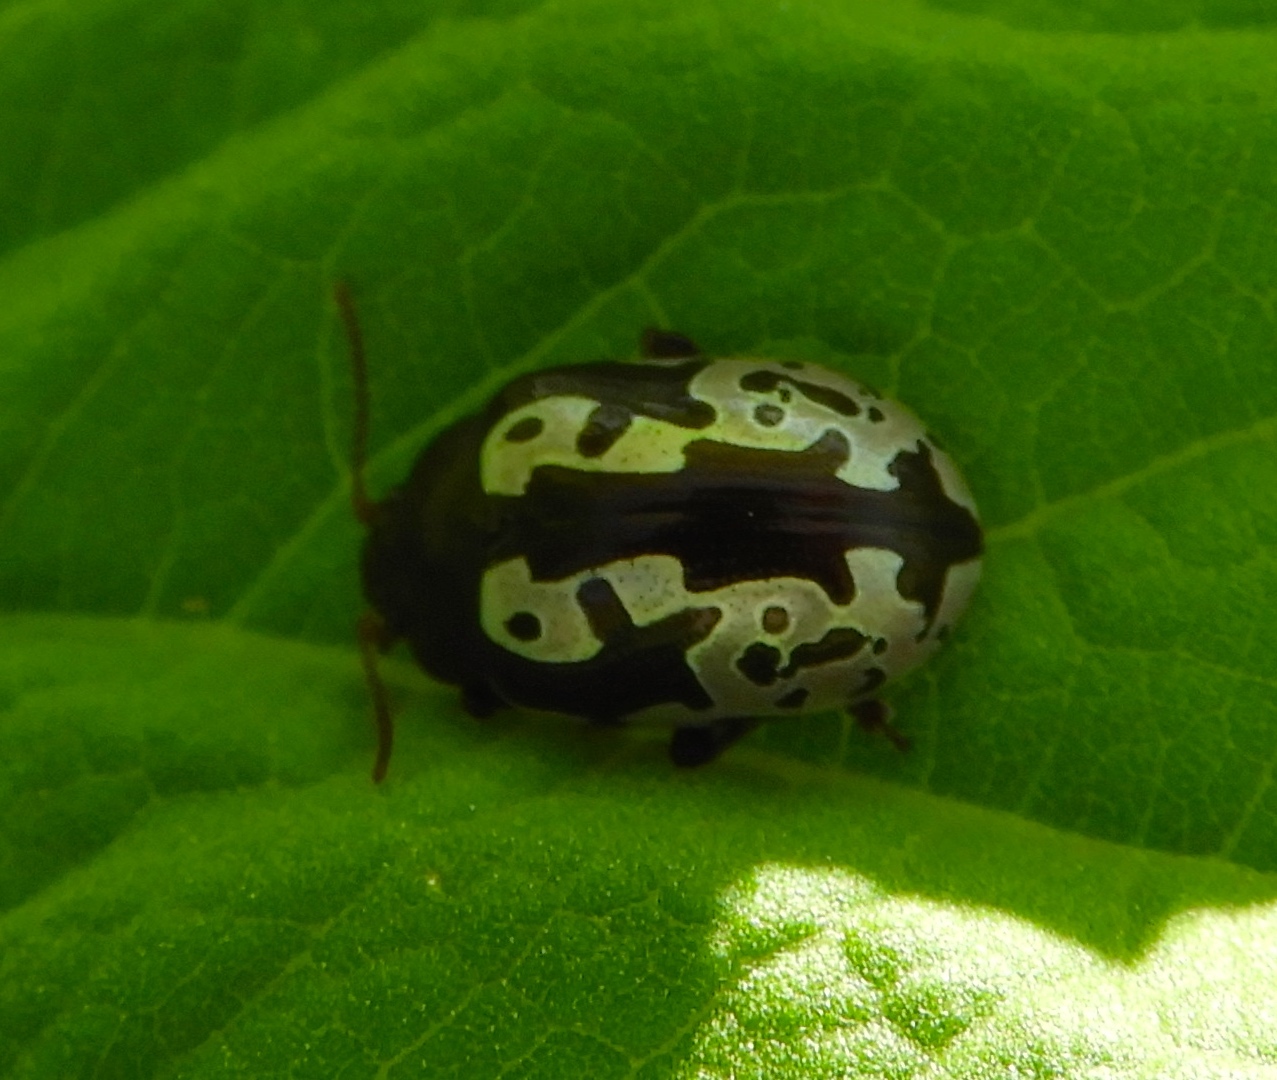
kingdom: Animalia
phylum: Arthropoda
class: Insecta
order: Coleoptera
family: Chrysomelidae
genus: Calligrapha
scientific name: Calligrapha intermedia
